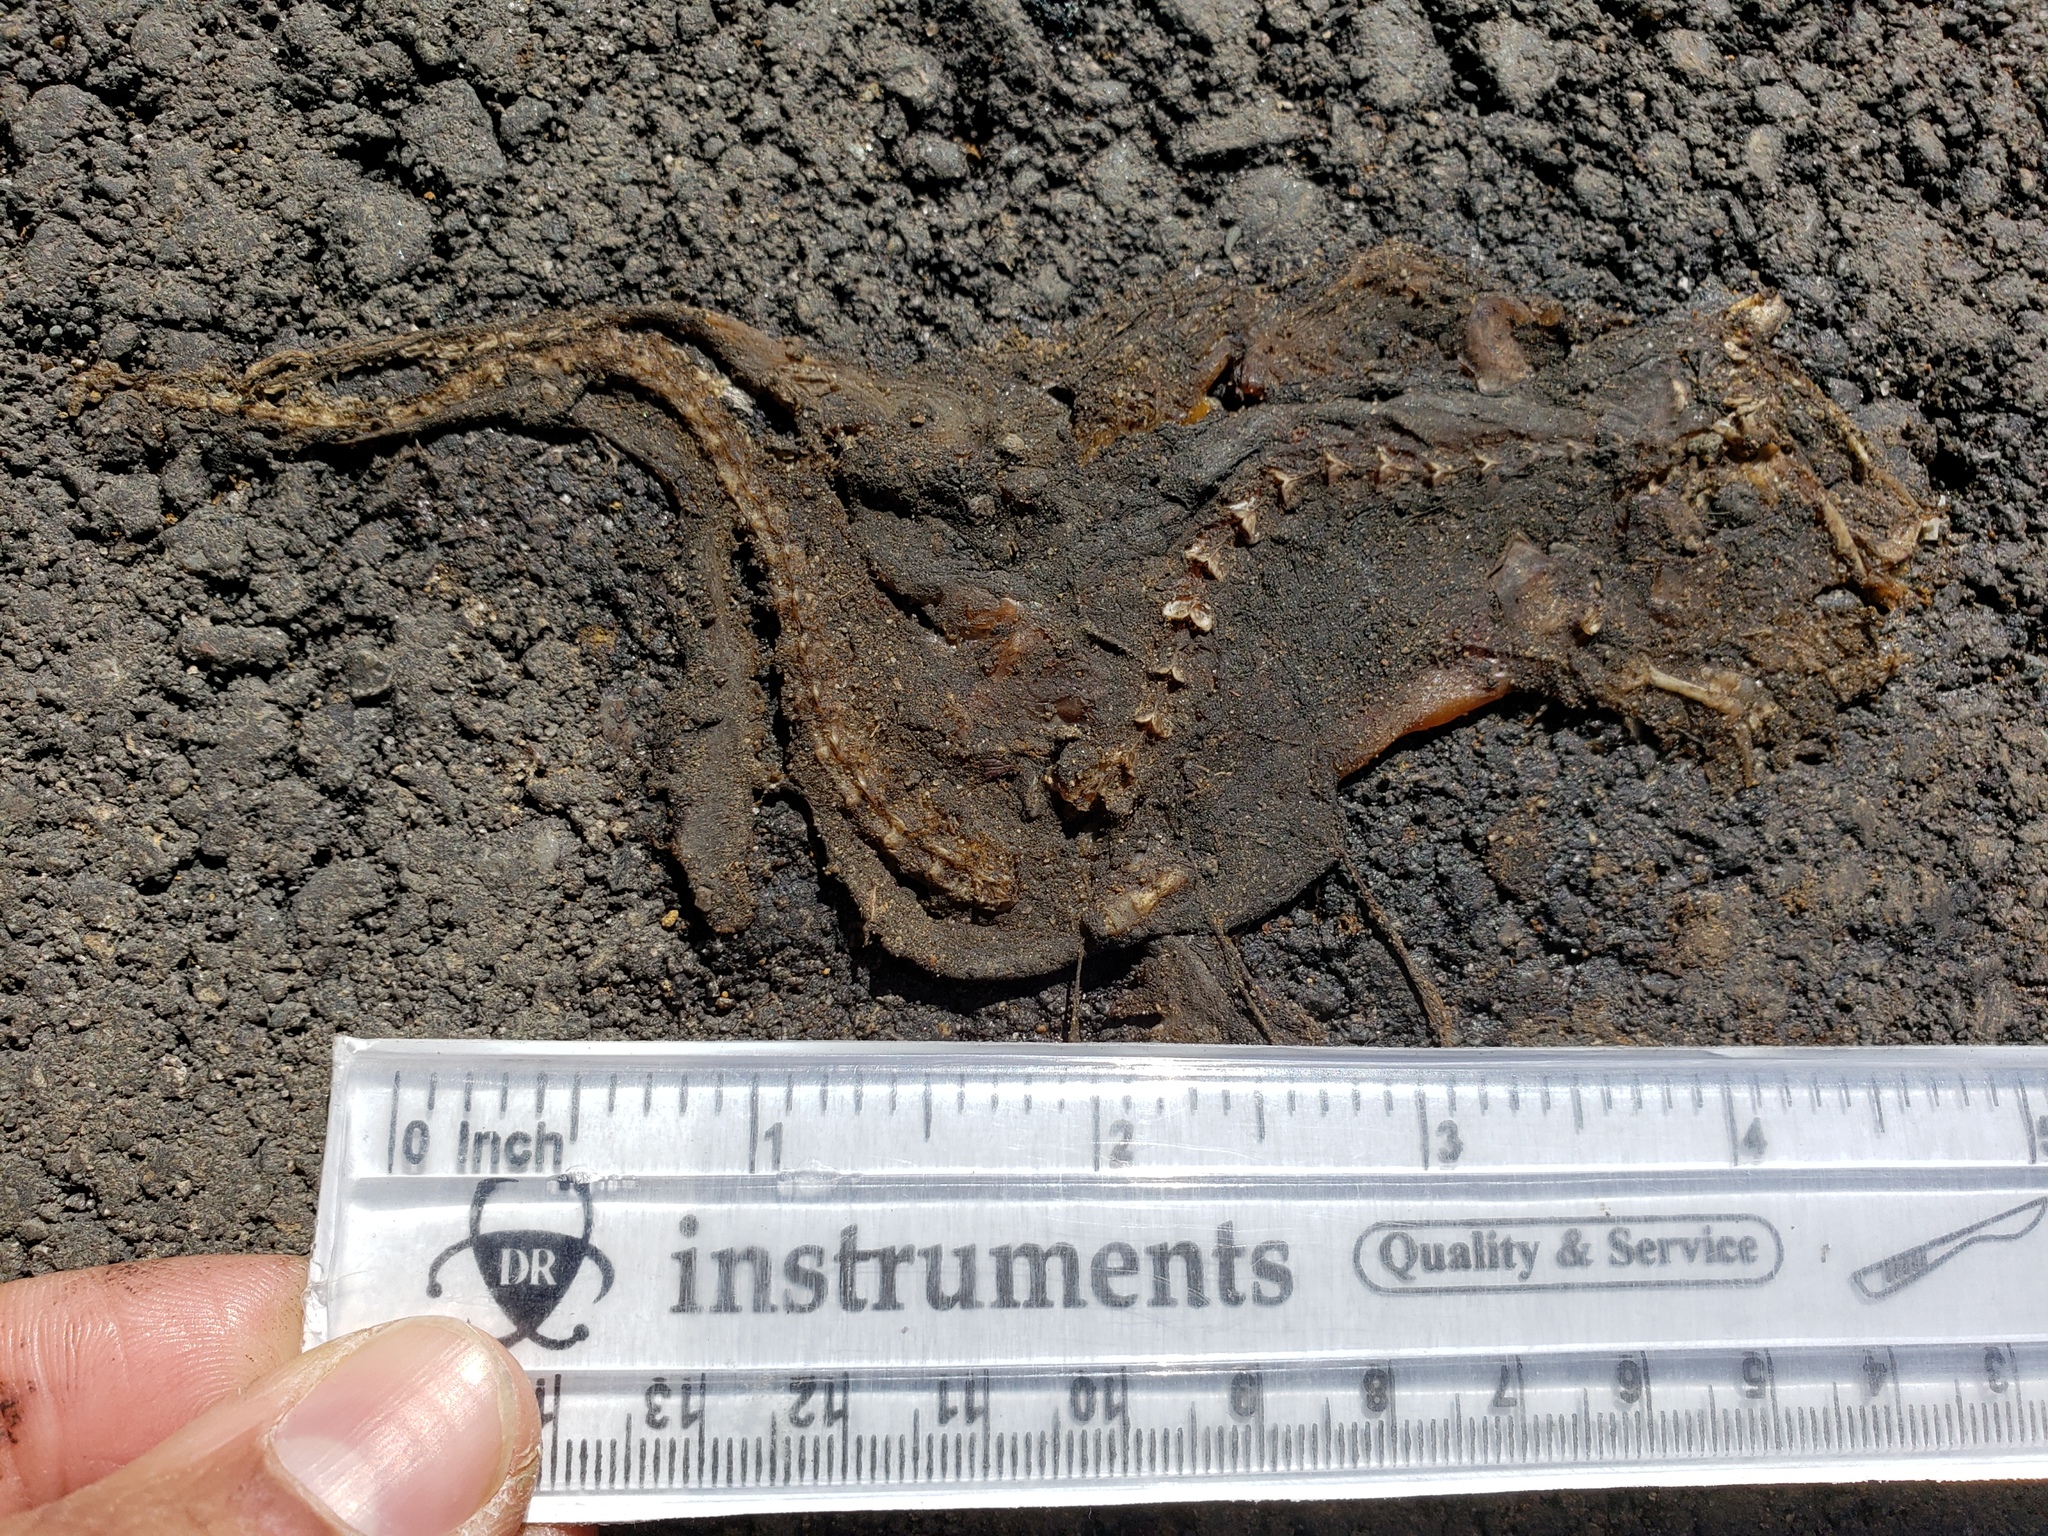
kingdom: Animalia
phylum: Chordata
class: Amphibia
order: Caudata
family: Salamandridae
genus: Taricha
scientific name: Taricha
